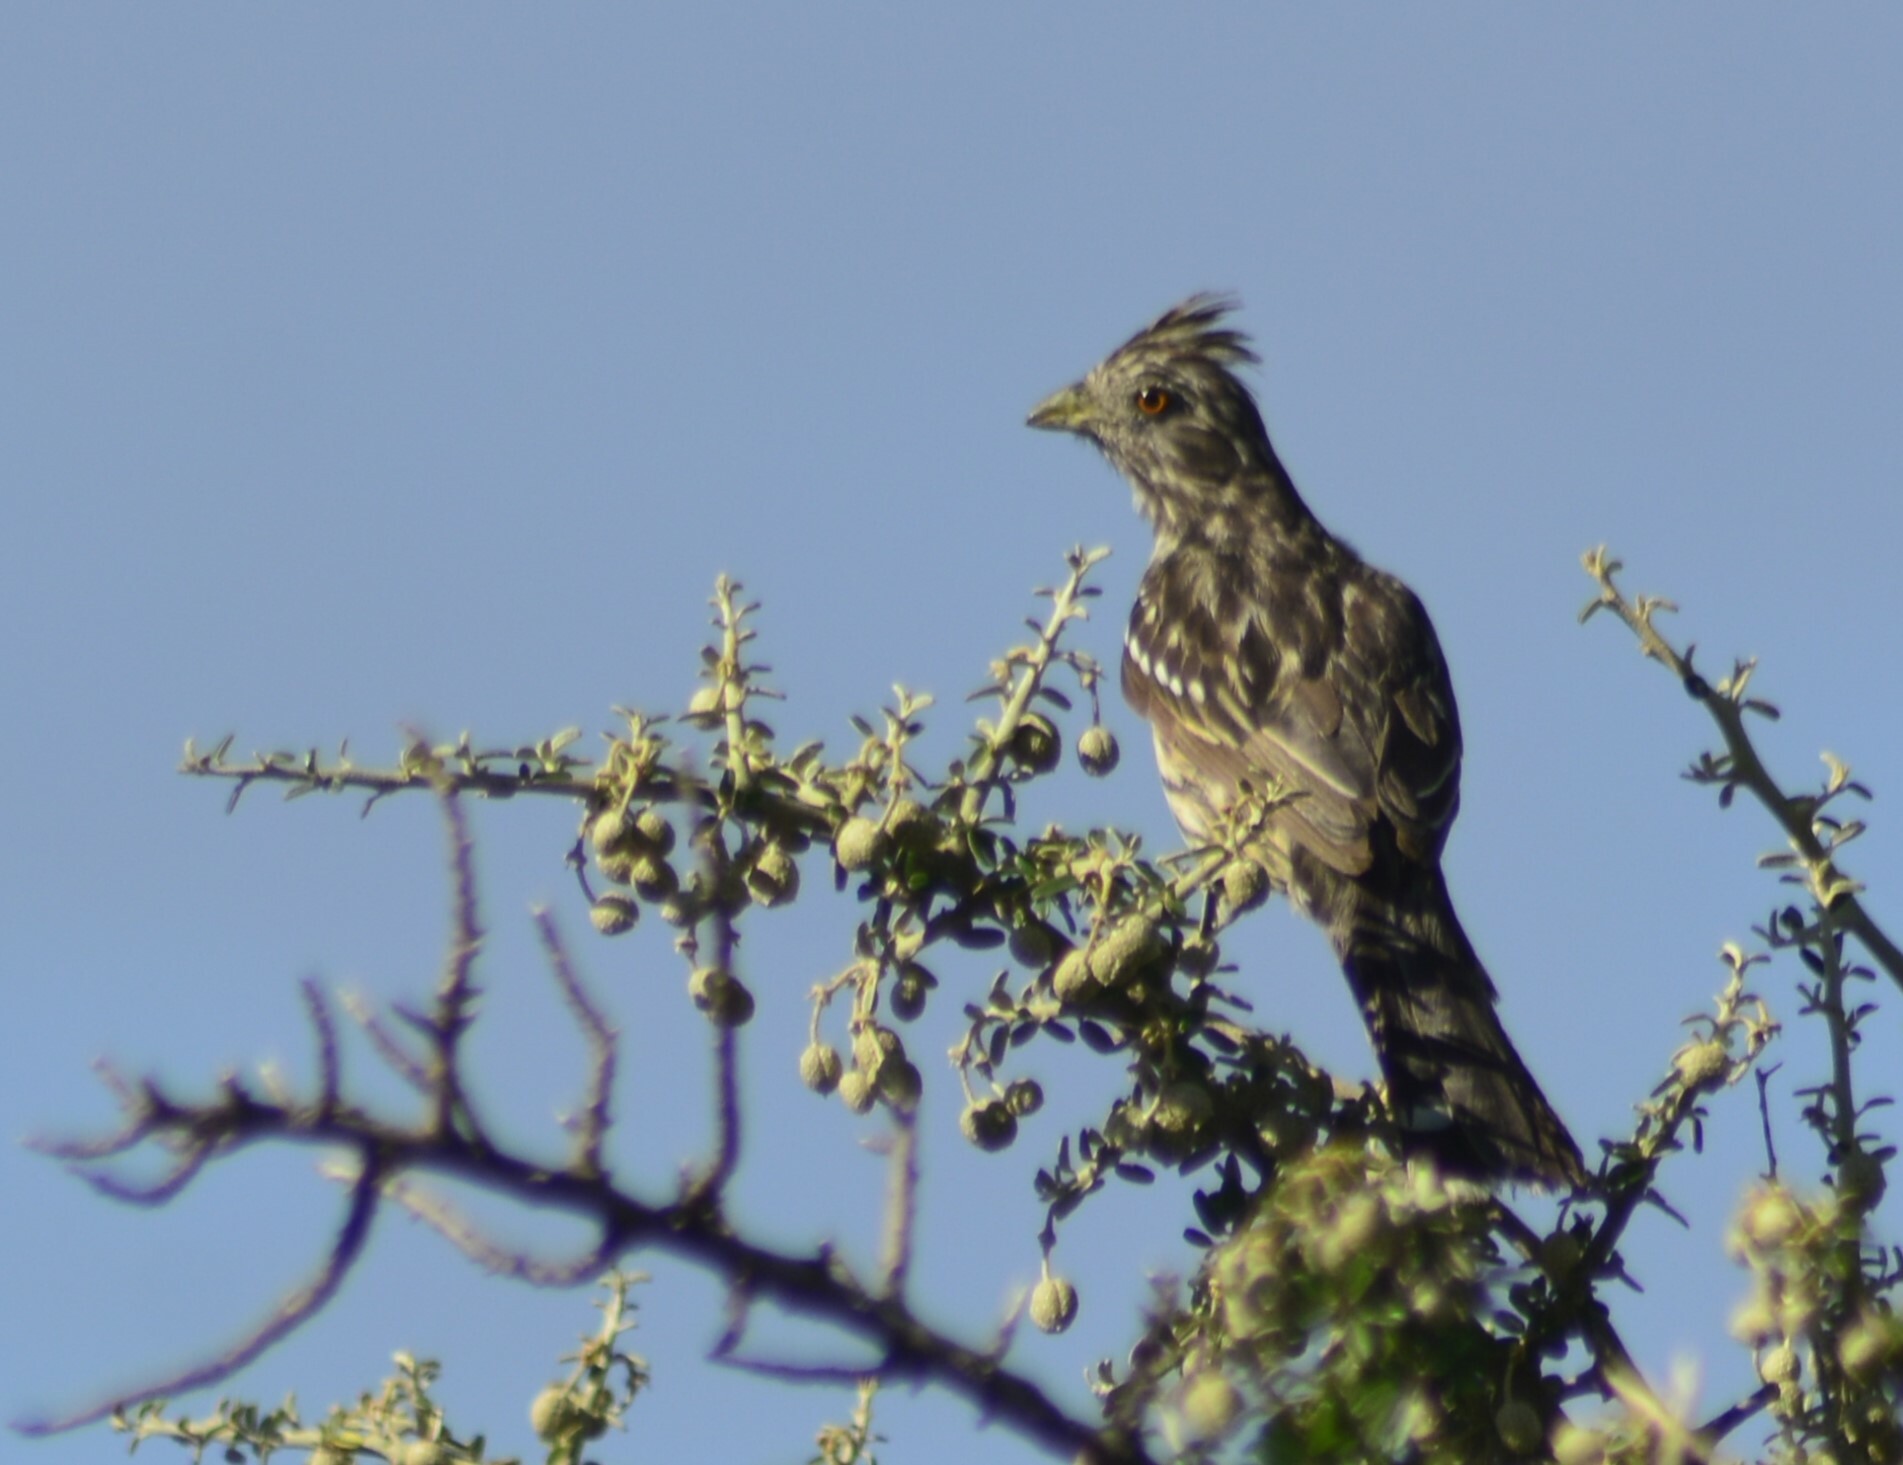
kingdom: Animalia
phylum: Chordata
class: Aves
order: Passeriformes
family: Cotingidae
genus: Phytotoma
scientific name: Phytotoma rutila
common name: White-tipped plantcutter
